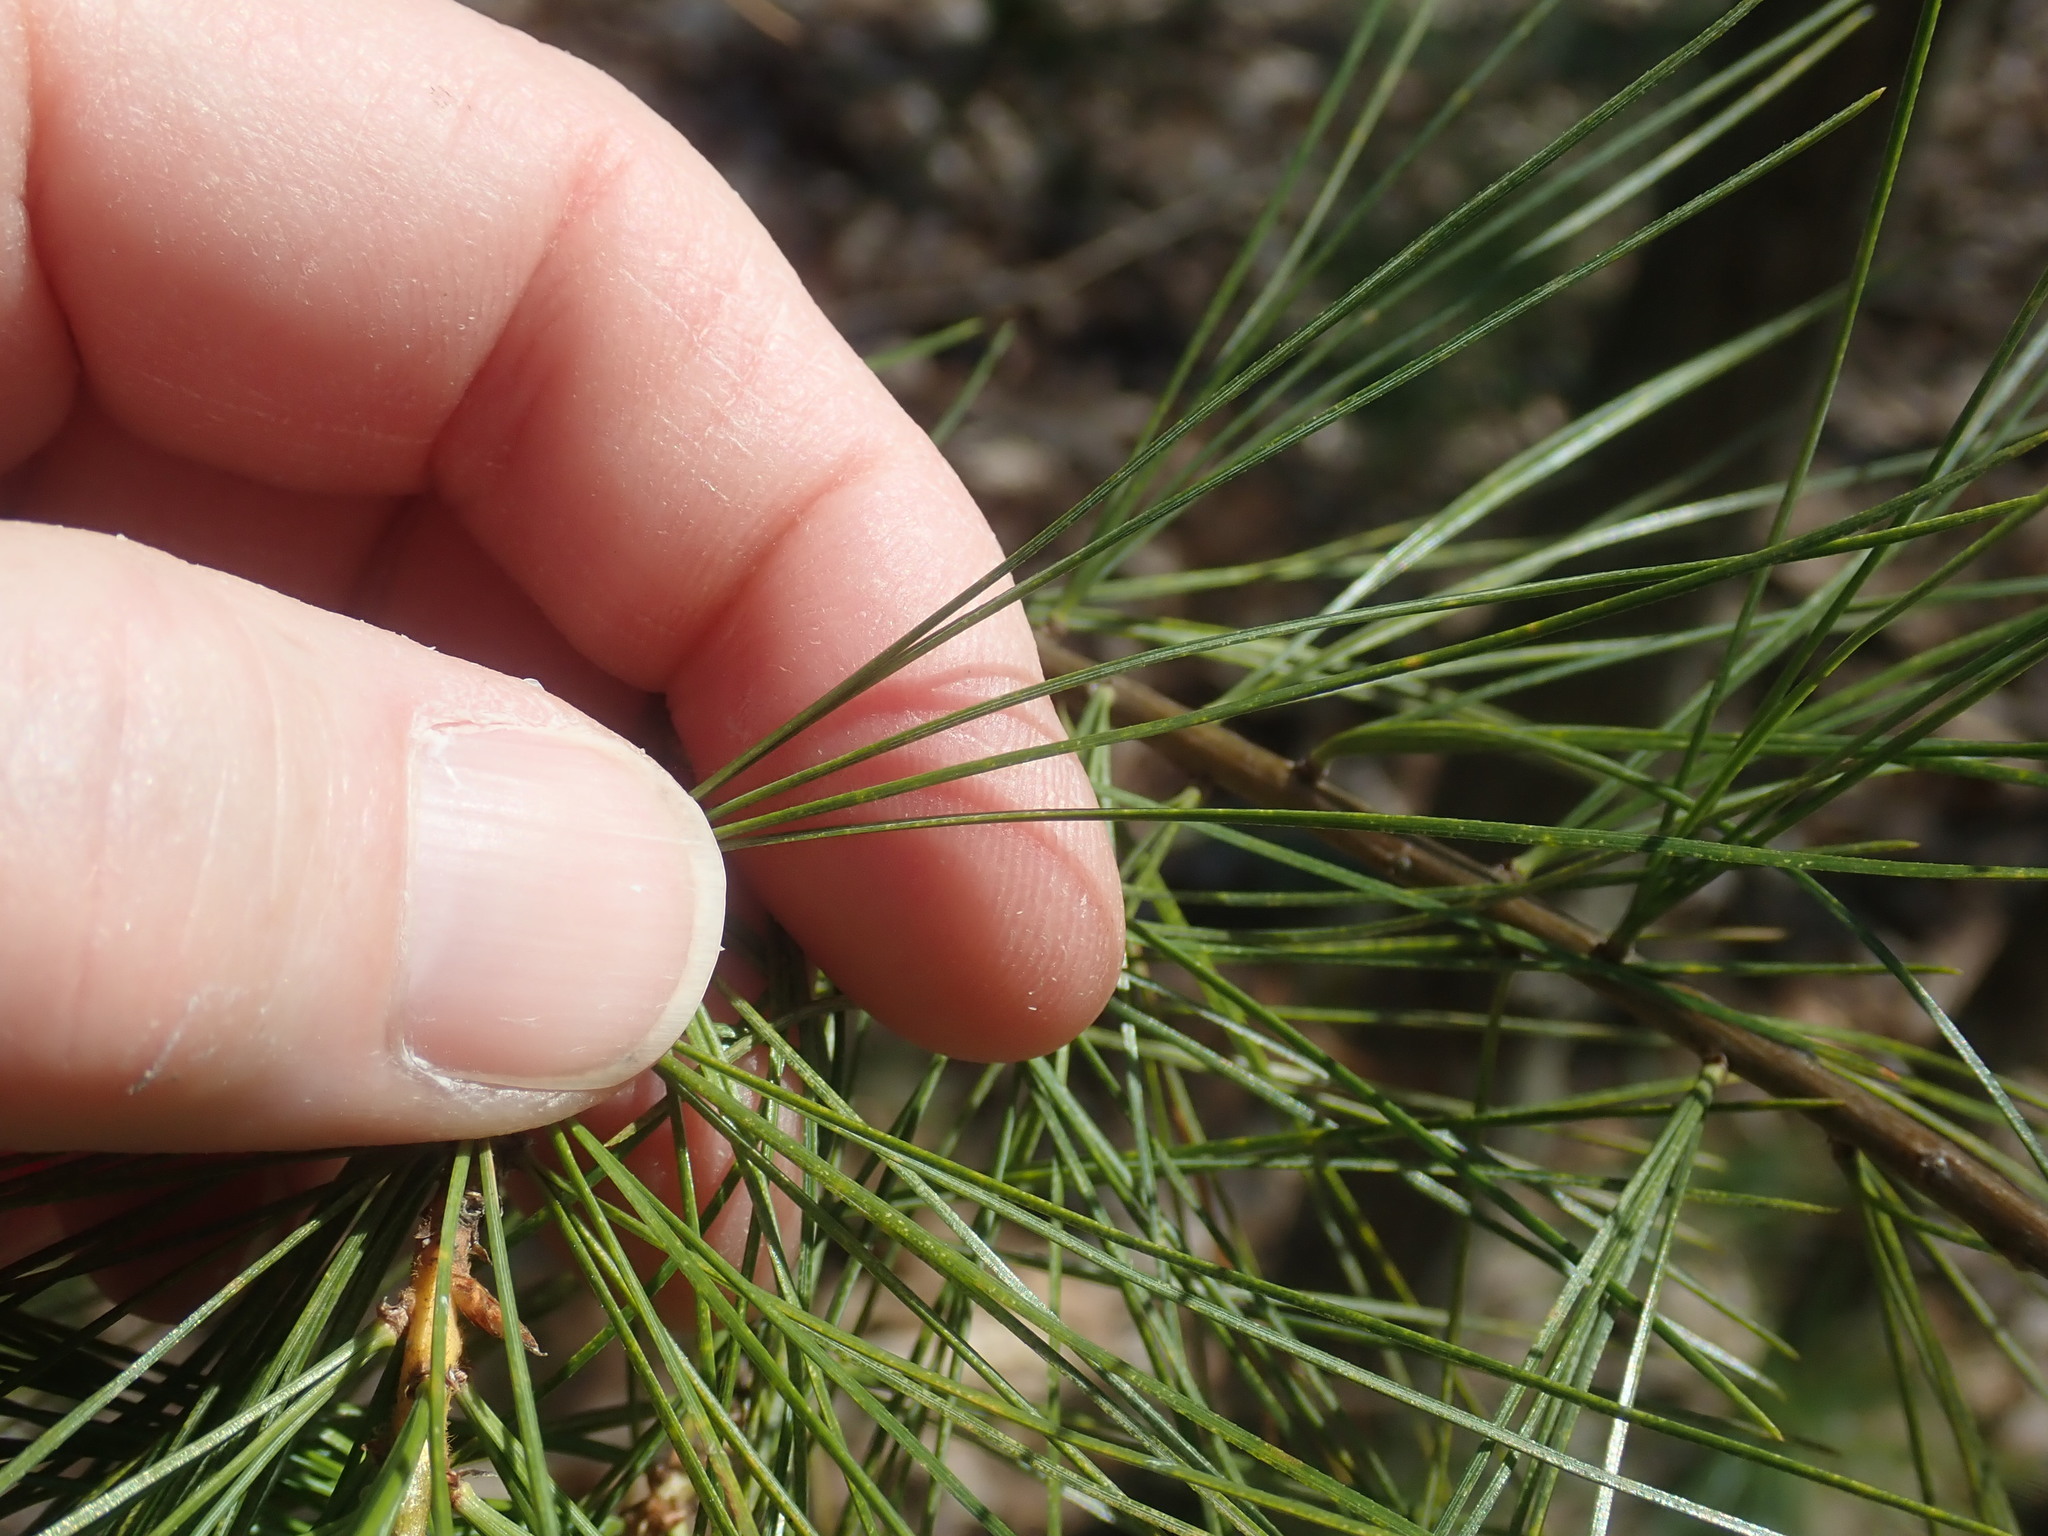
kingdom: Plantae
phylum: Tracheophyta
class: Pinopsida
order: Pinales
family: Pinaceae
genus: Pinus
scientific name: Pinus strobus
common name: Weymouth pine
